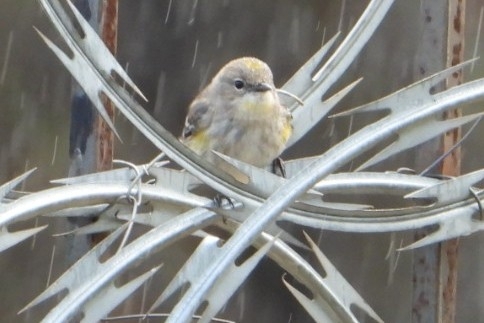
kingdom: Animalia
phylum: Chordata
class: Aves
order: Passeriformes
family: Parulidae
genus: Setophaga
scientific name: Setophaga coronata
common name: Myrtle warbler
